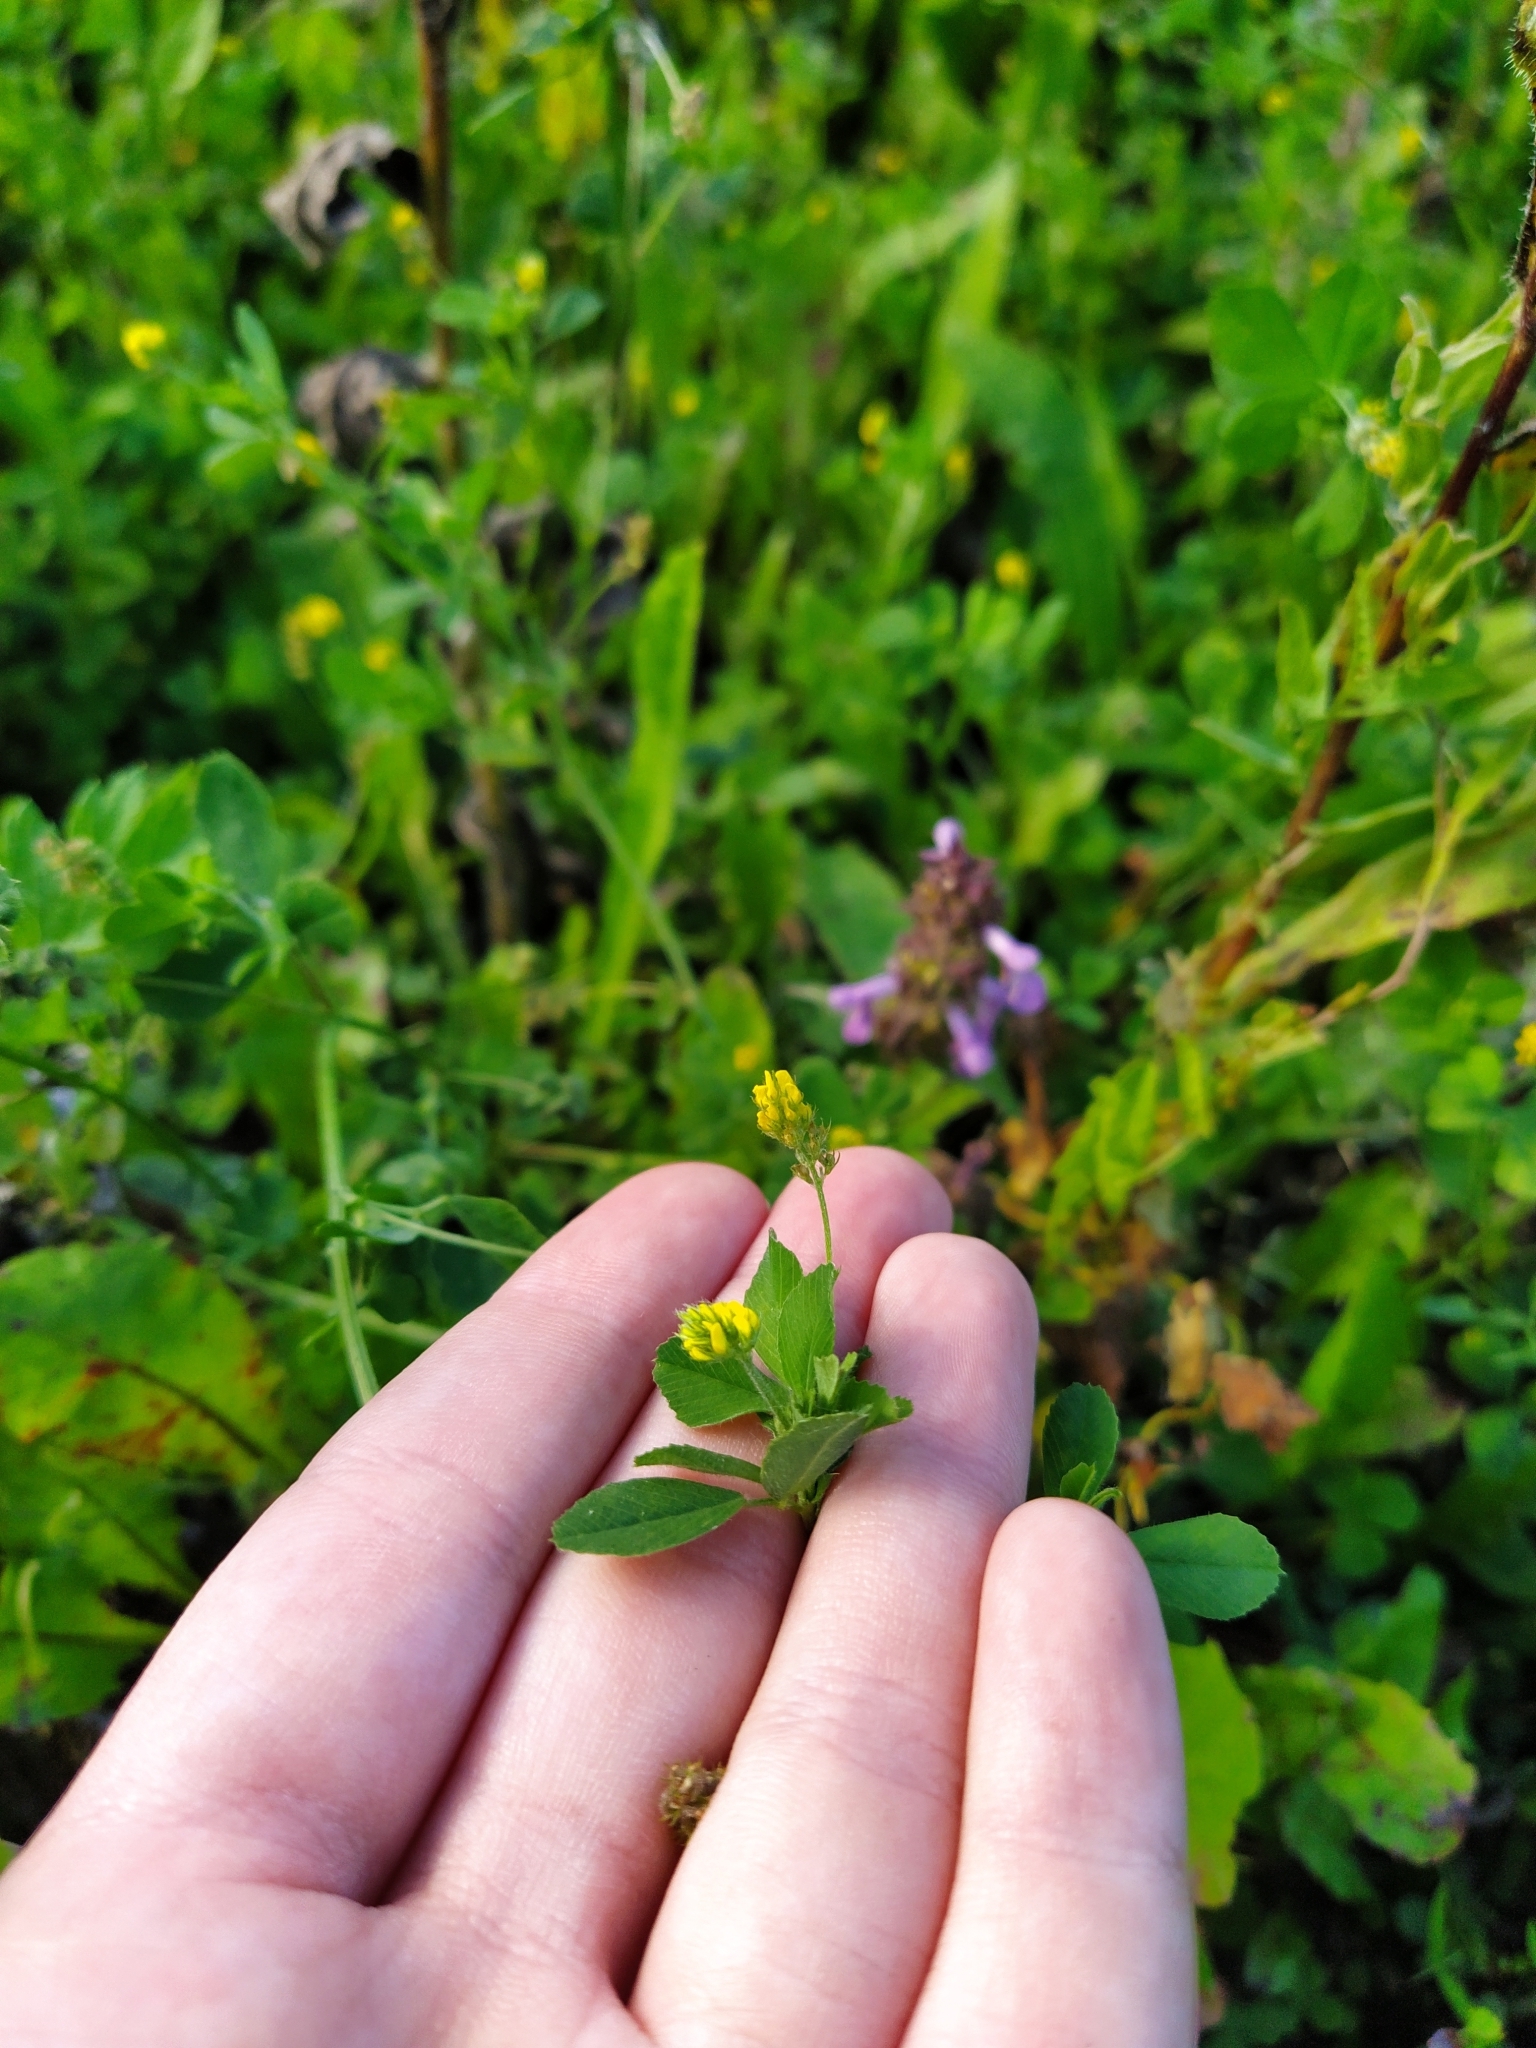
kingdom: Plantae
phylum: Tracheophyta
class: Magnoliopsida
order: Fabales
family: Fabaceae
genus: Medicago
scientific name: Medicago lupulina
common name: Black medick
